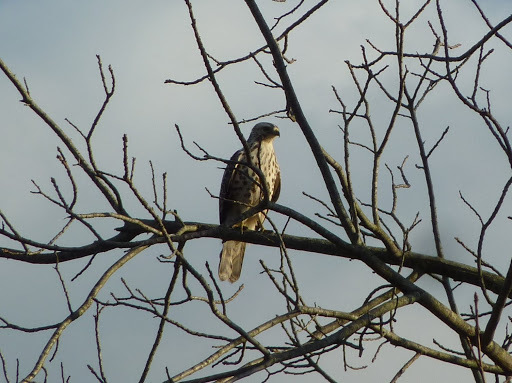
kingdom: Animalia
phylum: Chordata
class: Aves
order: Accipitriformes
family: Accipitridae
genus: Buteo
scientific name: Buteo lineatus
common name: Red-shouldered hawk
